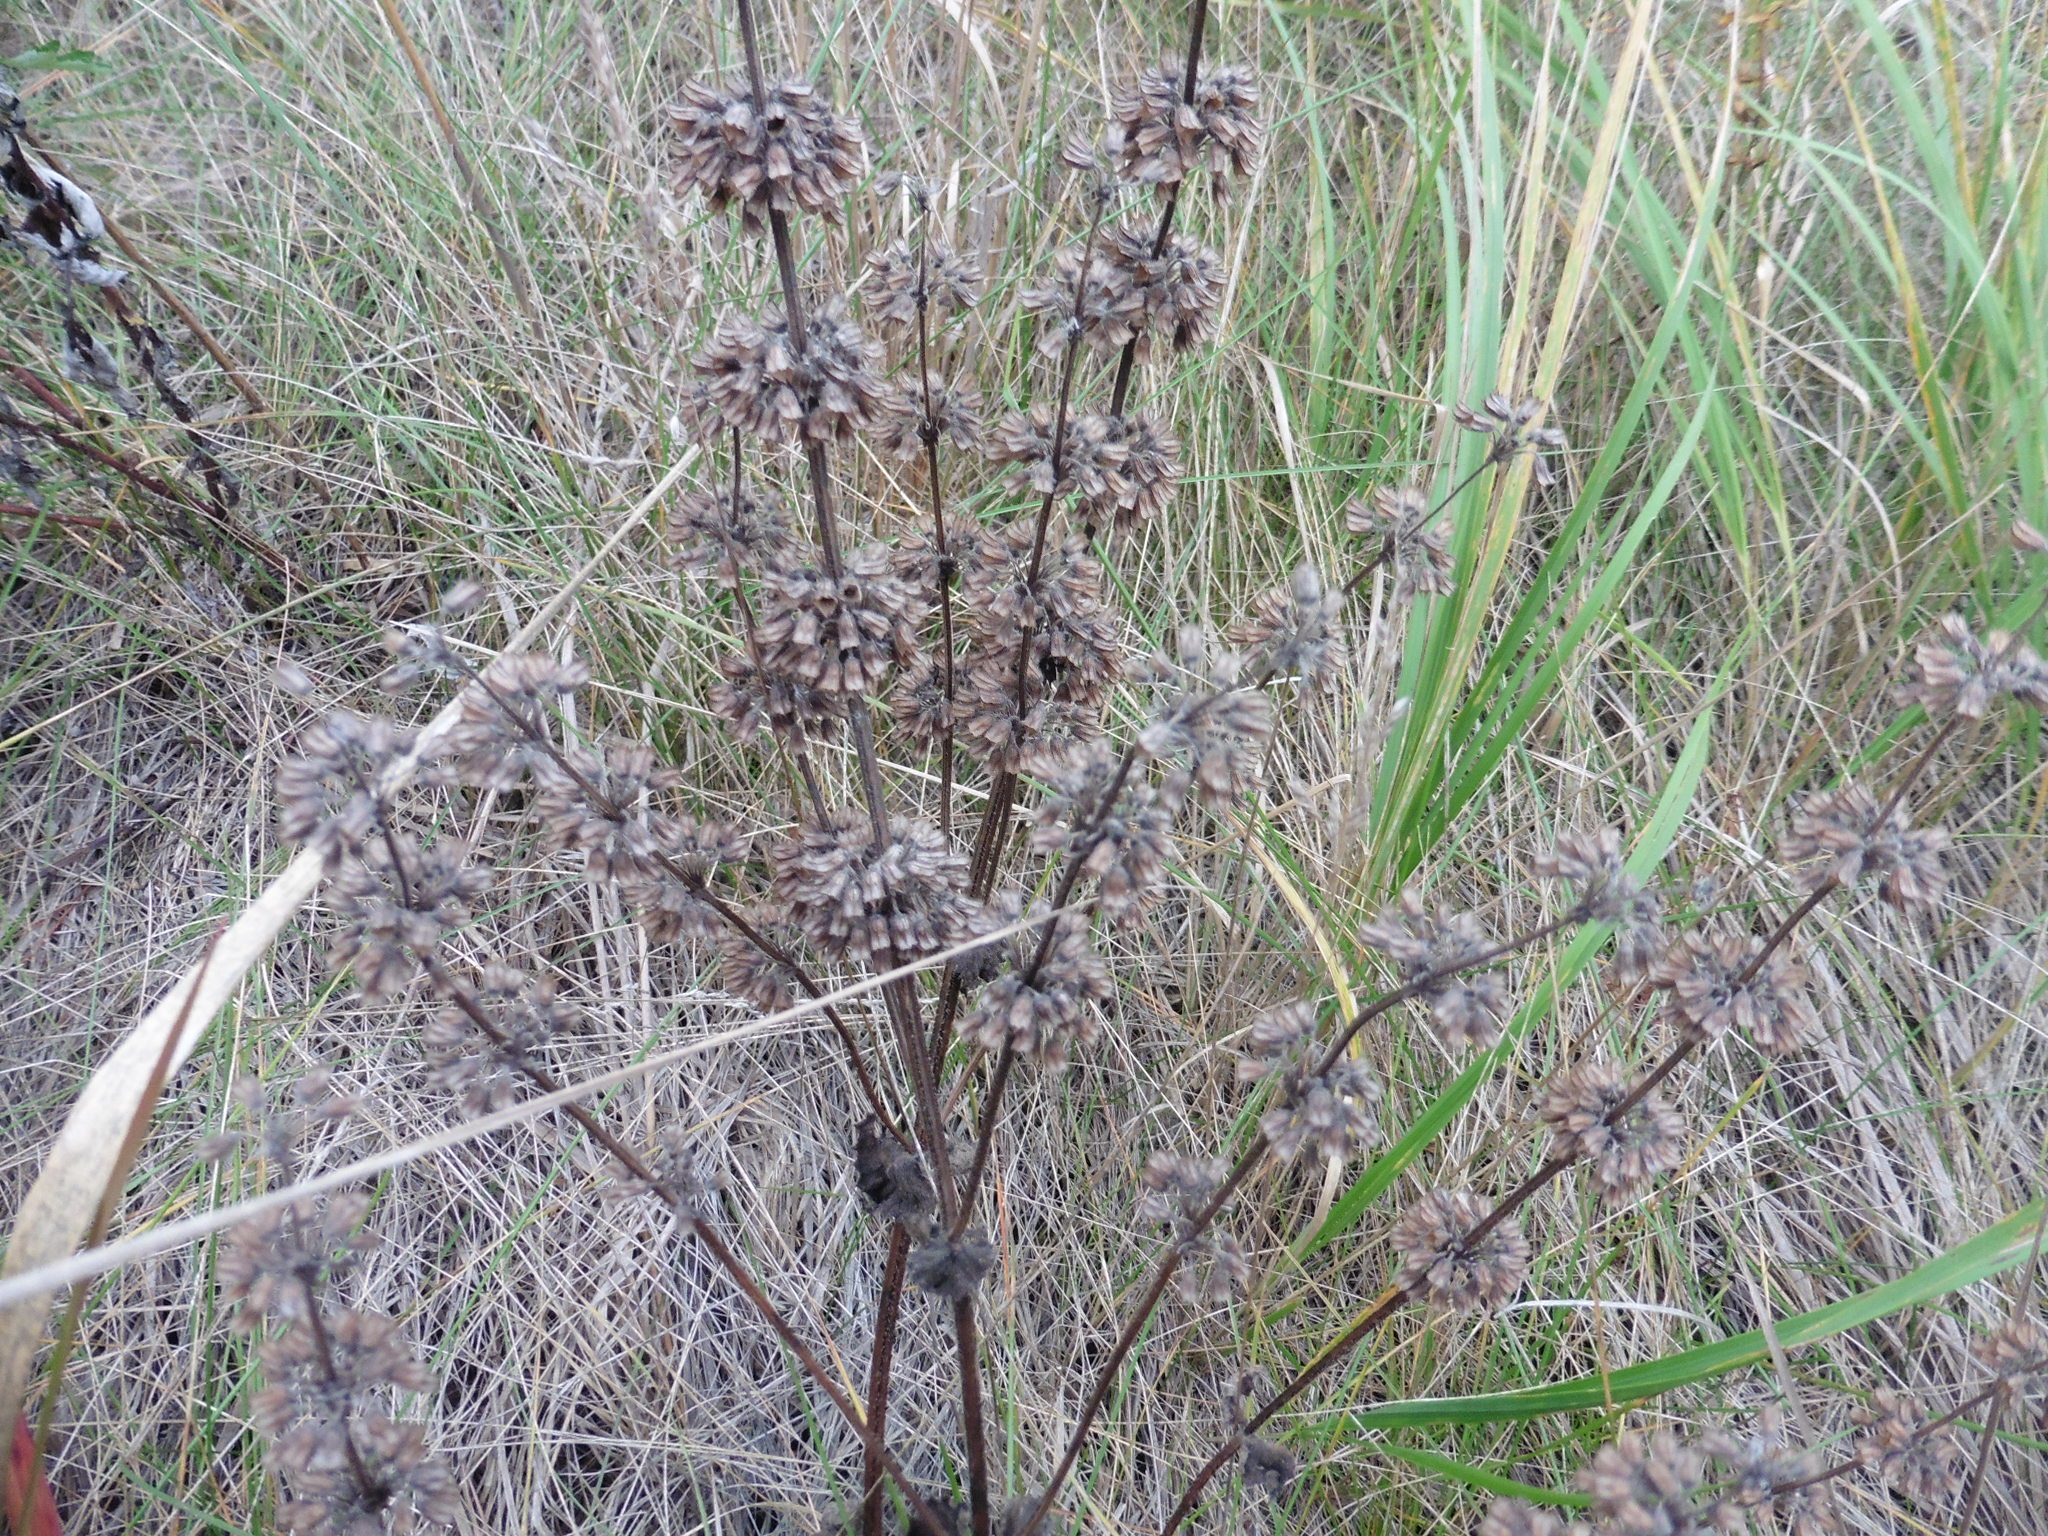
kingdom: Plantae
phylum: Tracheophyta
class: Magnoliopsida
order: Lamiales
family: Lamiaceae
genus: Salvia
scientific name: Salvia verticillata
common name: Whorled clary
